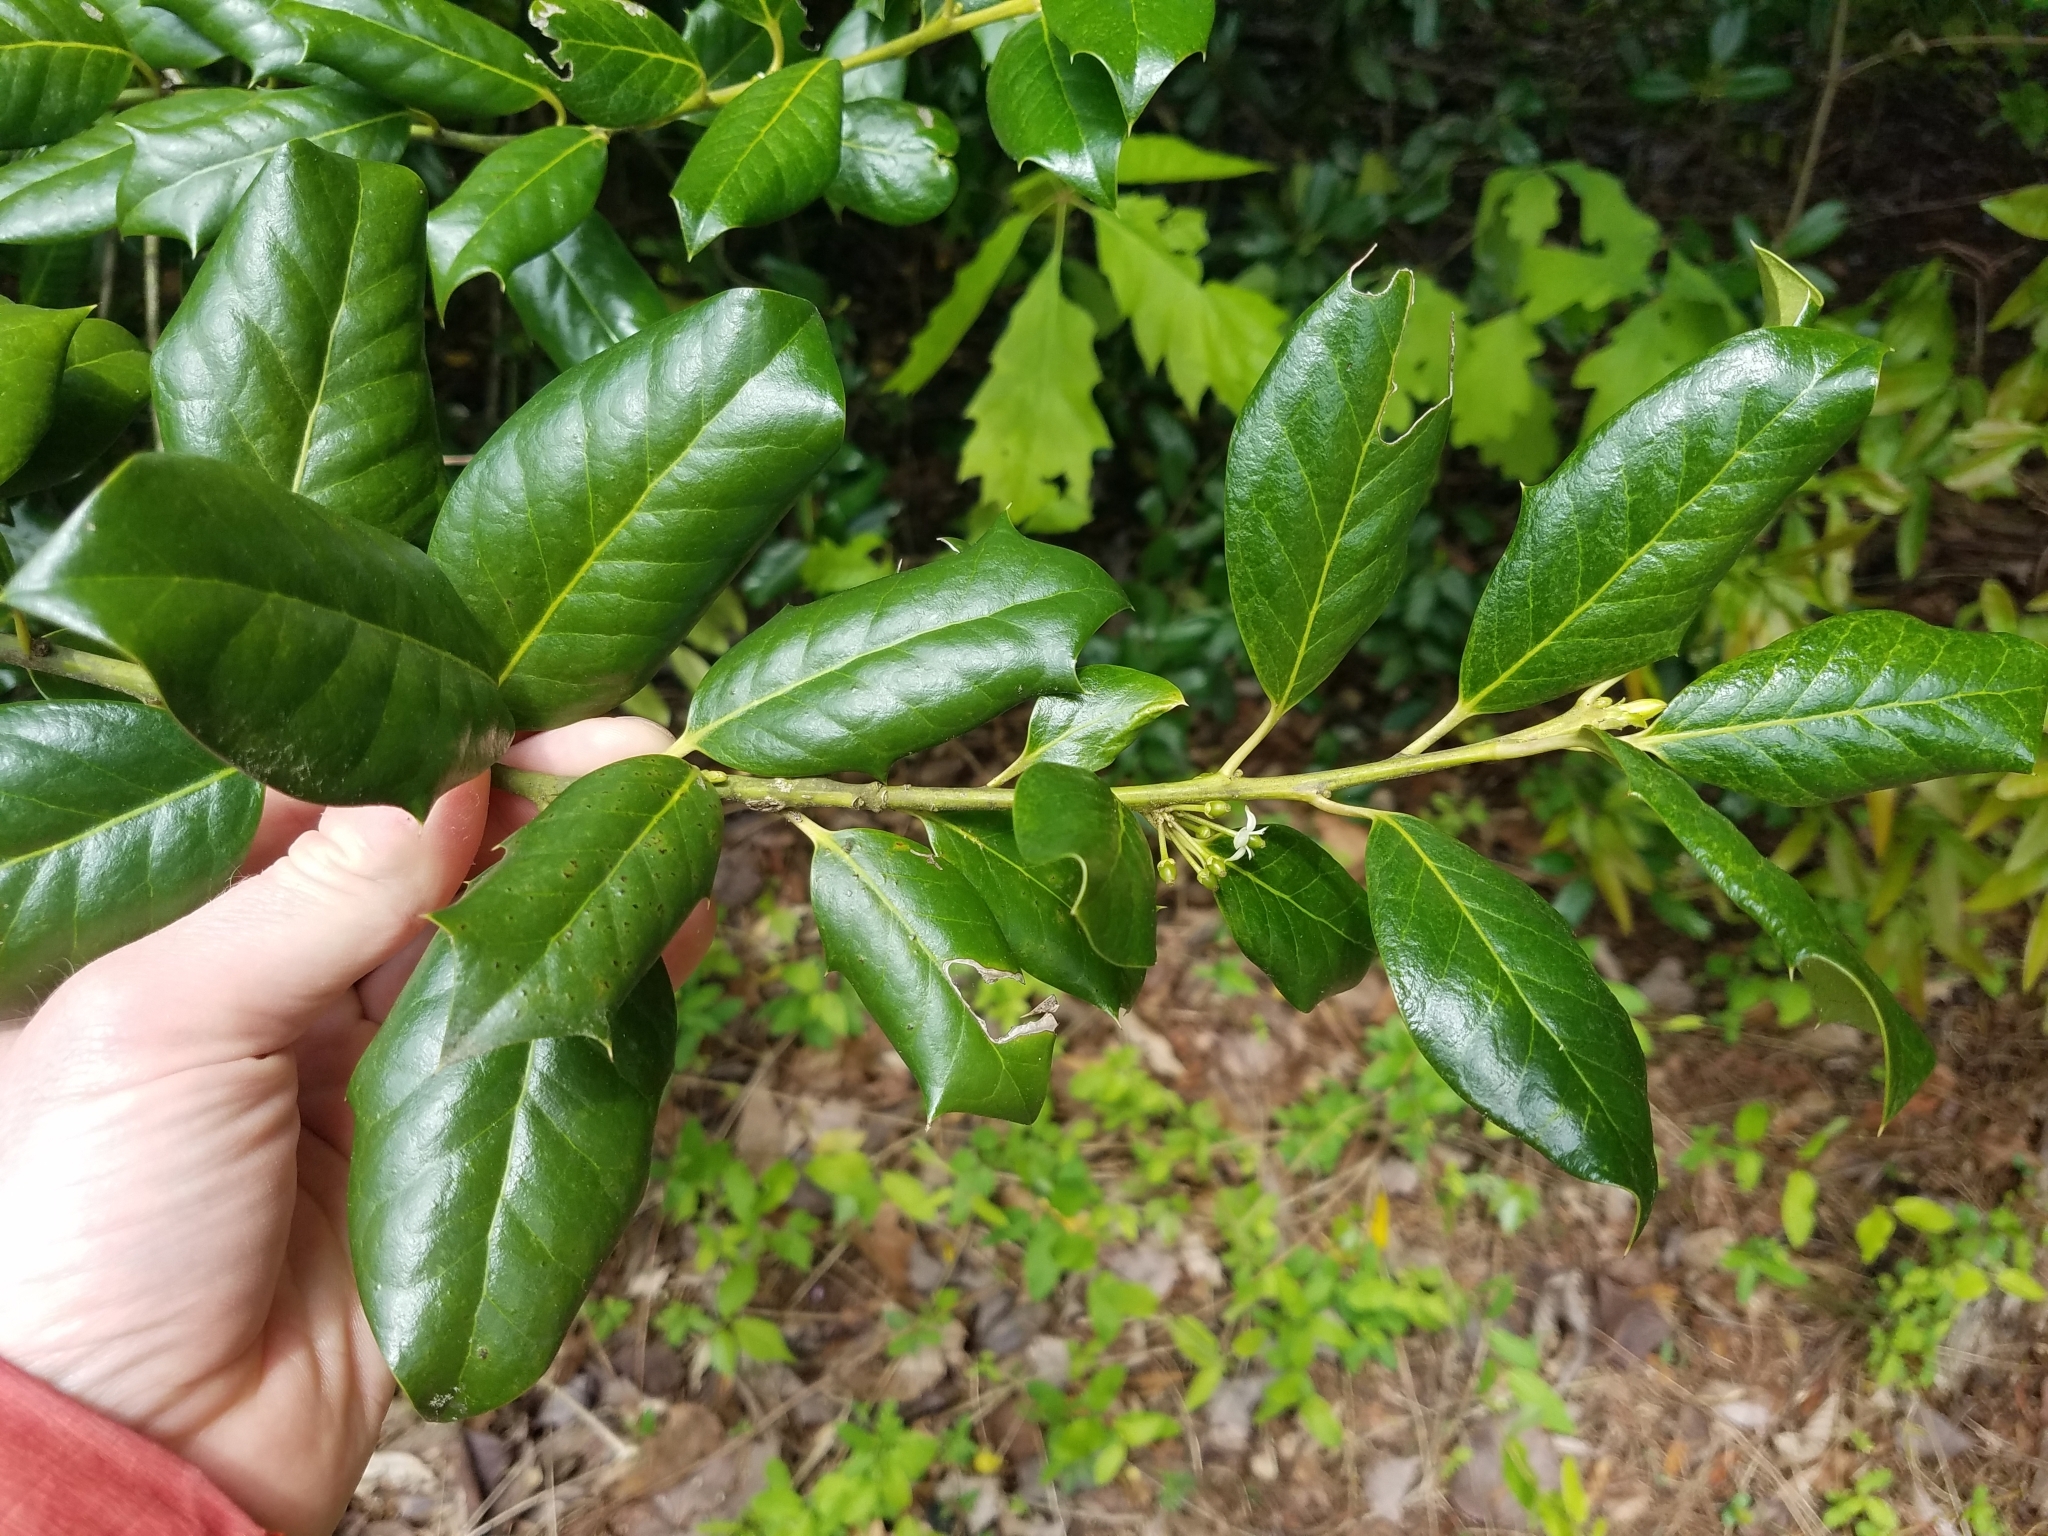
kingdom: Plantae
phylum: Tracheophyta
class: Magnoliopsida
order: Aquifoliales
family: Aquifoliaceae
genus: Ilex
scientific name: Ilex opaca
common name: American holly
